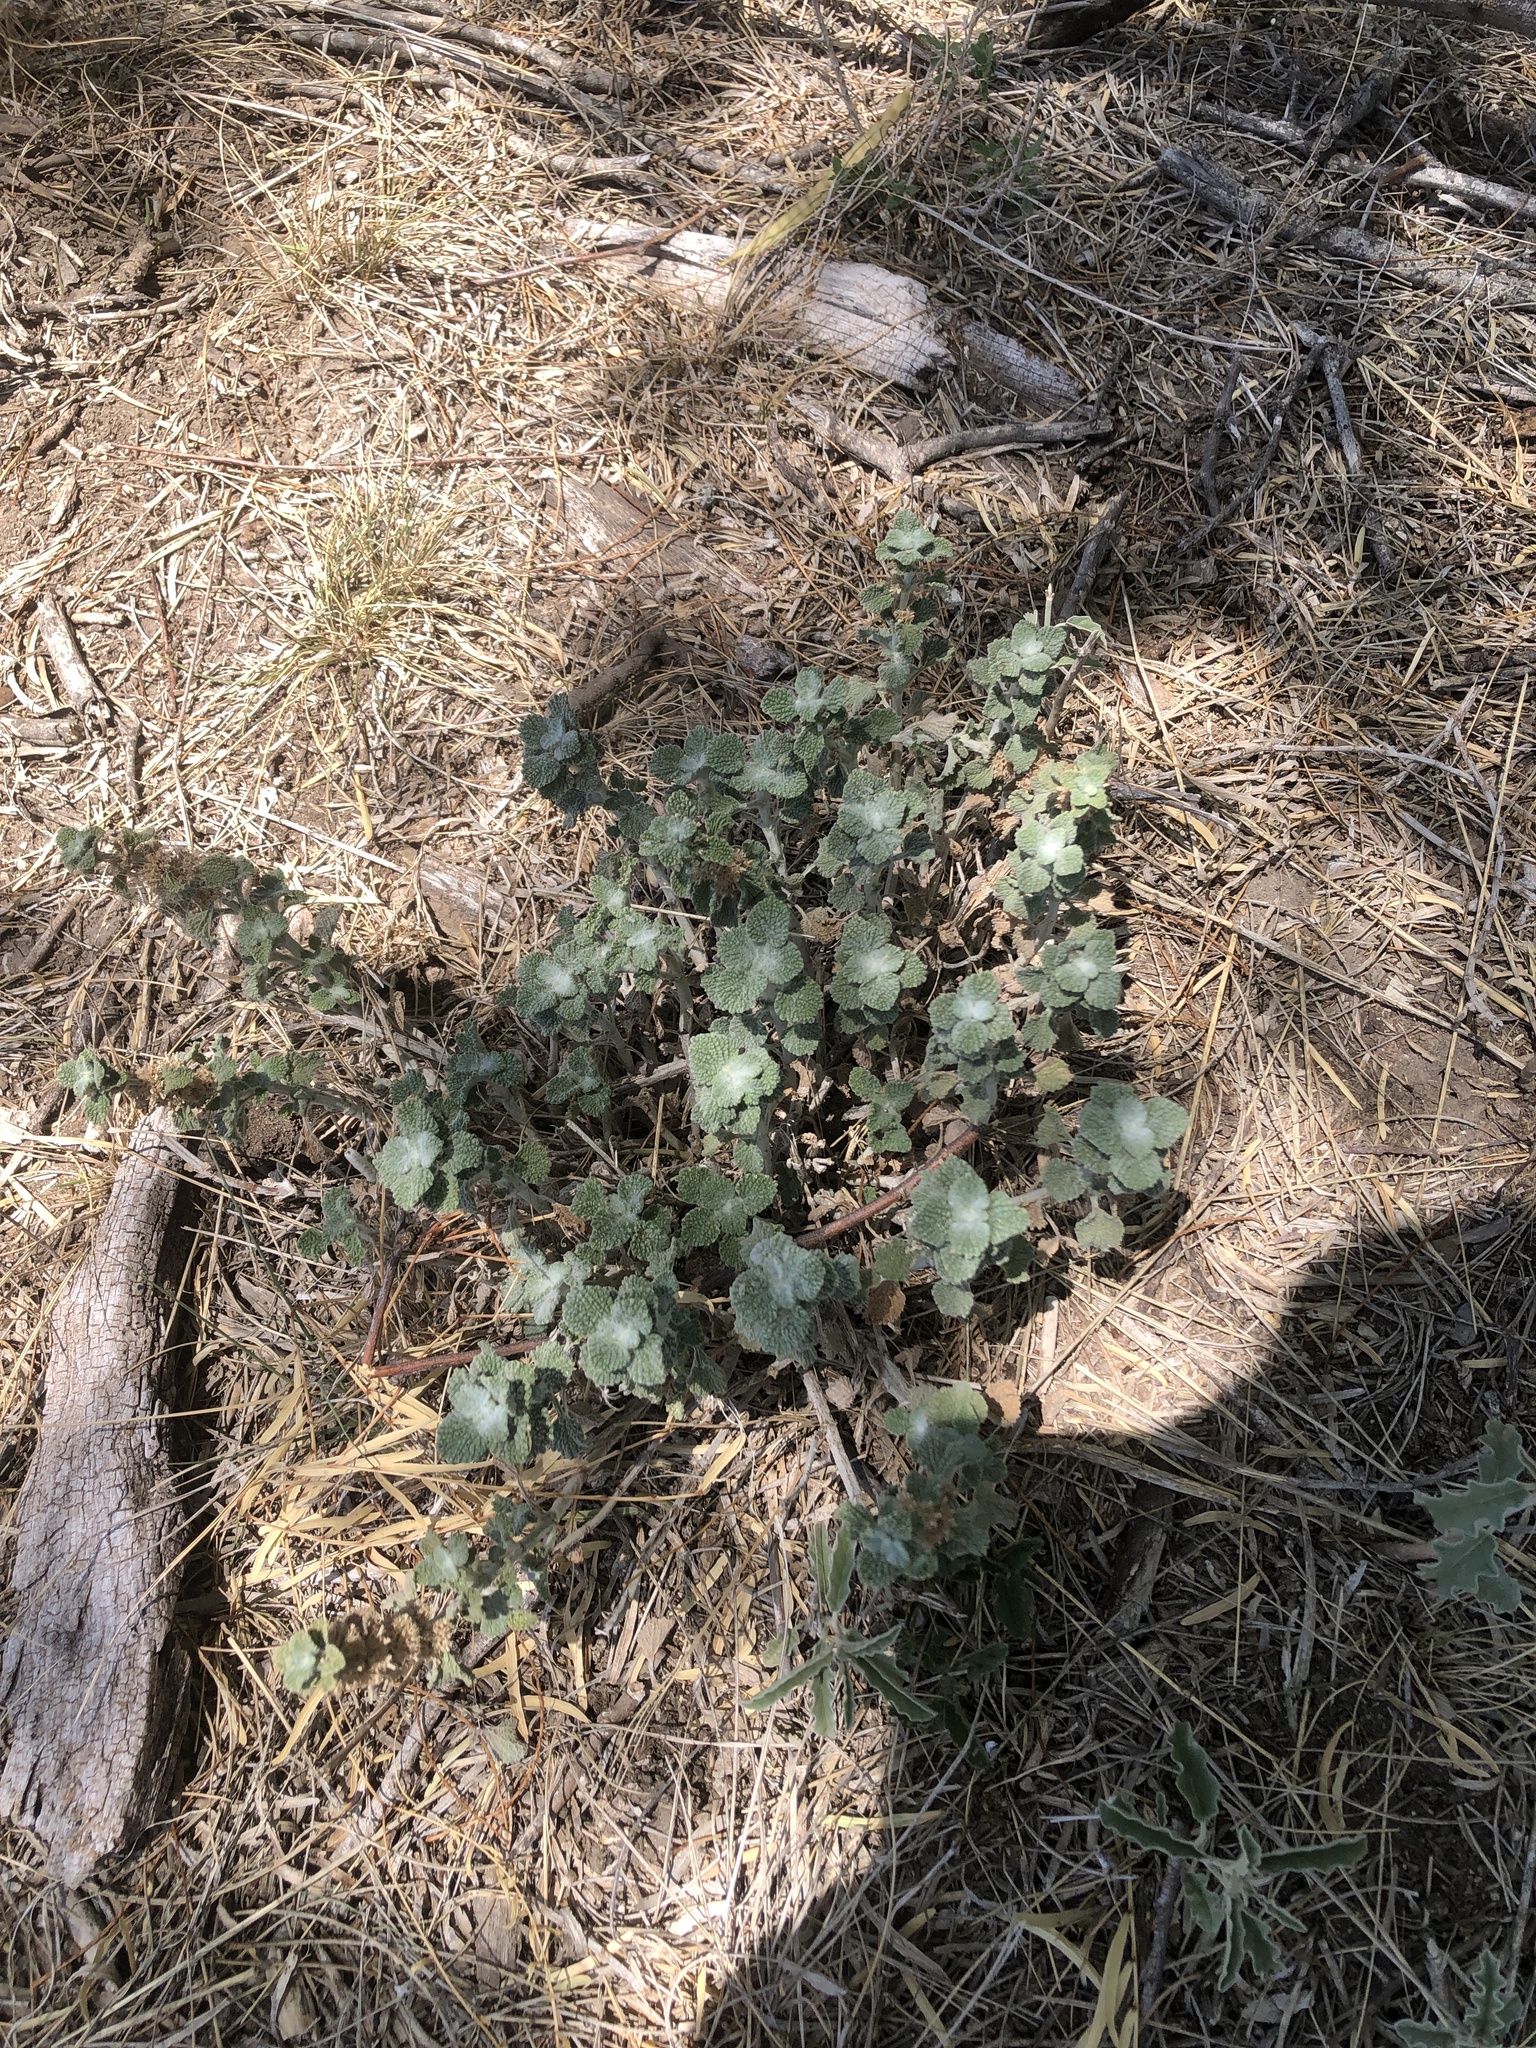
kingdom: Plantae
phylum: Tracheophyta
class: Magnoliopsida
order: Lamiales
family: Lamiaceae
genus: Marrubium
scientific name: Marrubium vulgare
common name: Horehound
